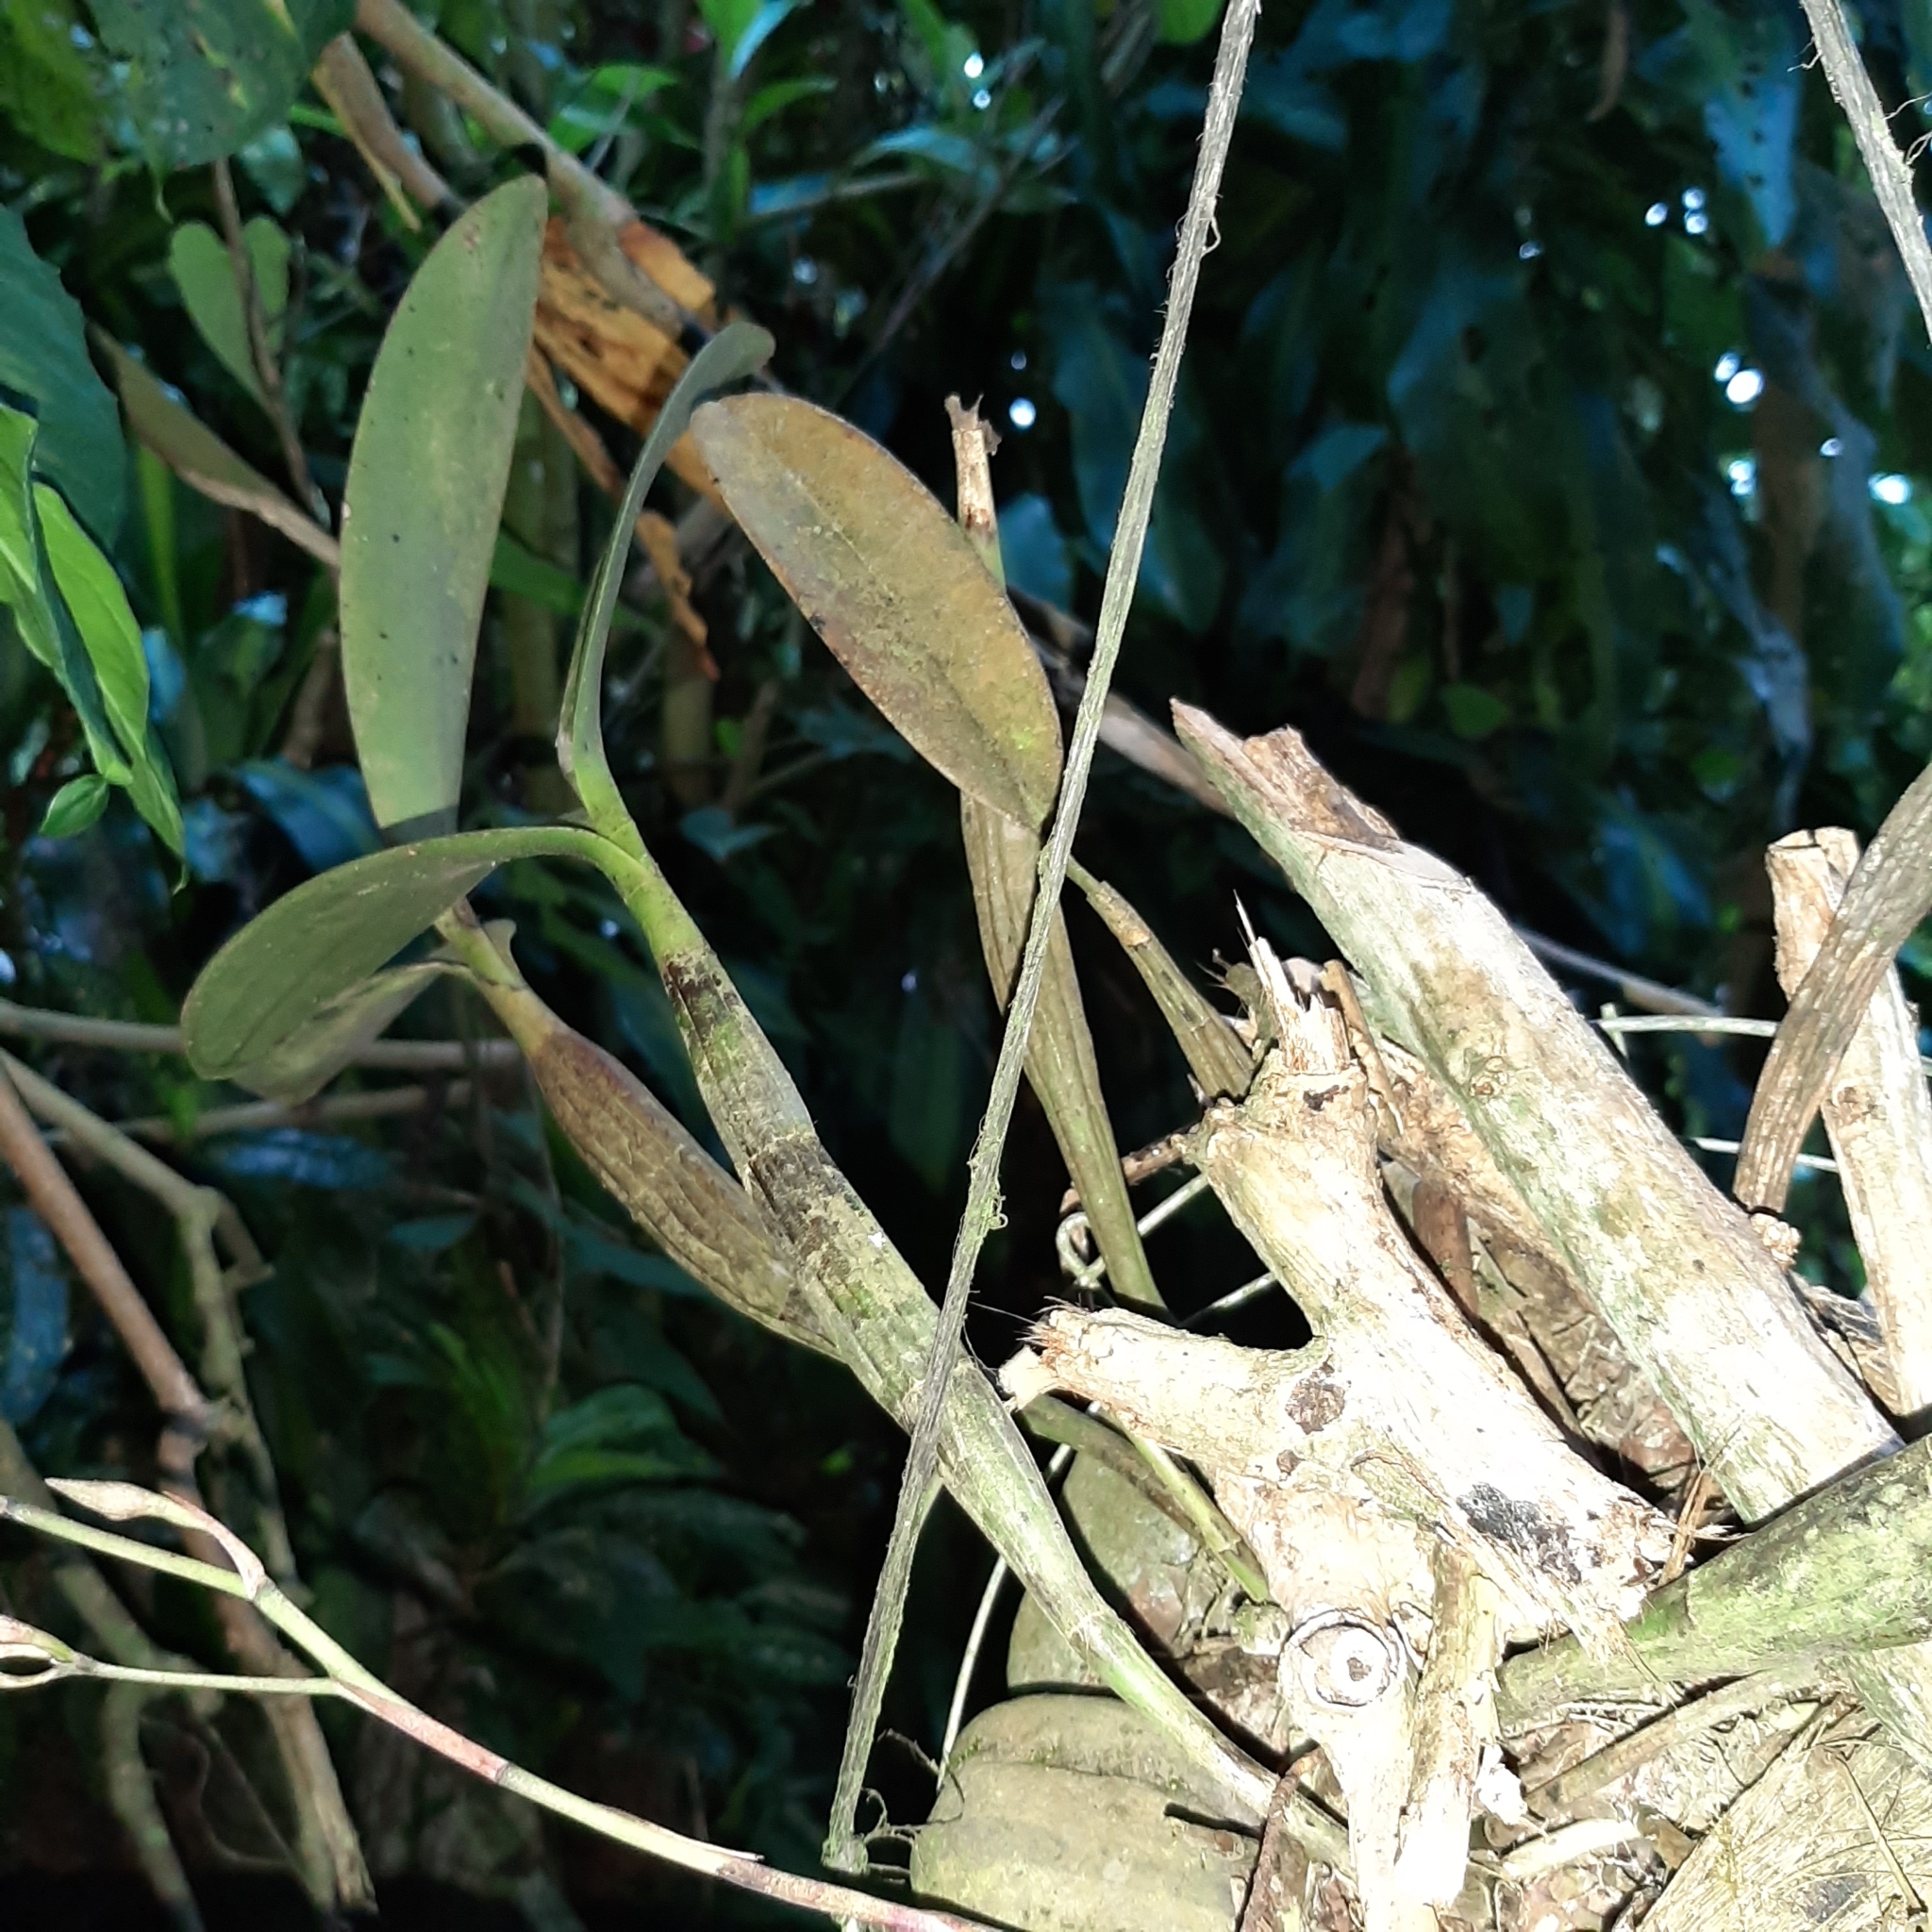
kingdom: Plantae
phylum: Tracheophyta
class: Liliopsida
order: Asparagales
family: Orchidaceae
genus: Epidendrum
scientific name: Epidendrum stamfordianum
